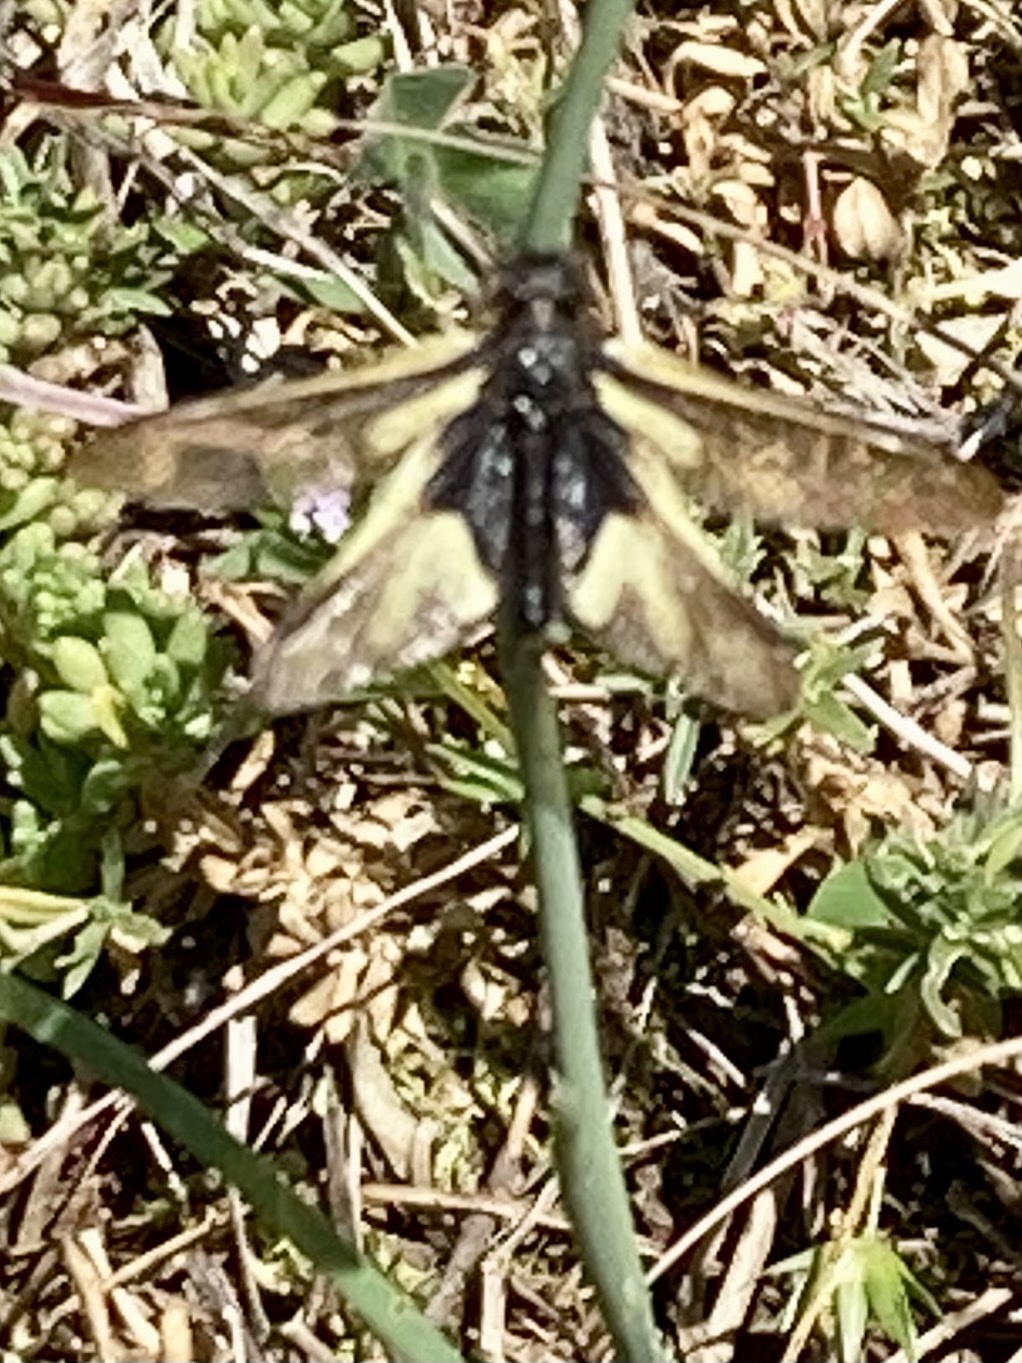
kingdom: Animalia
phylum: Arthropoda
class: Insecta
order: Neuroptera
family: Ascalaphidae
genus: Libelloides
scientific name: Libelloides coccajus
